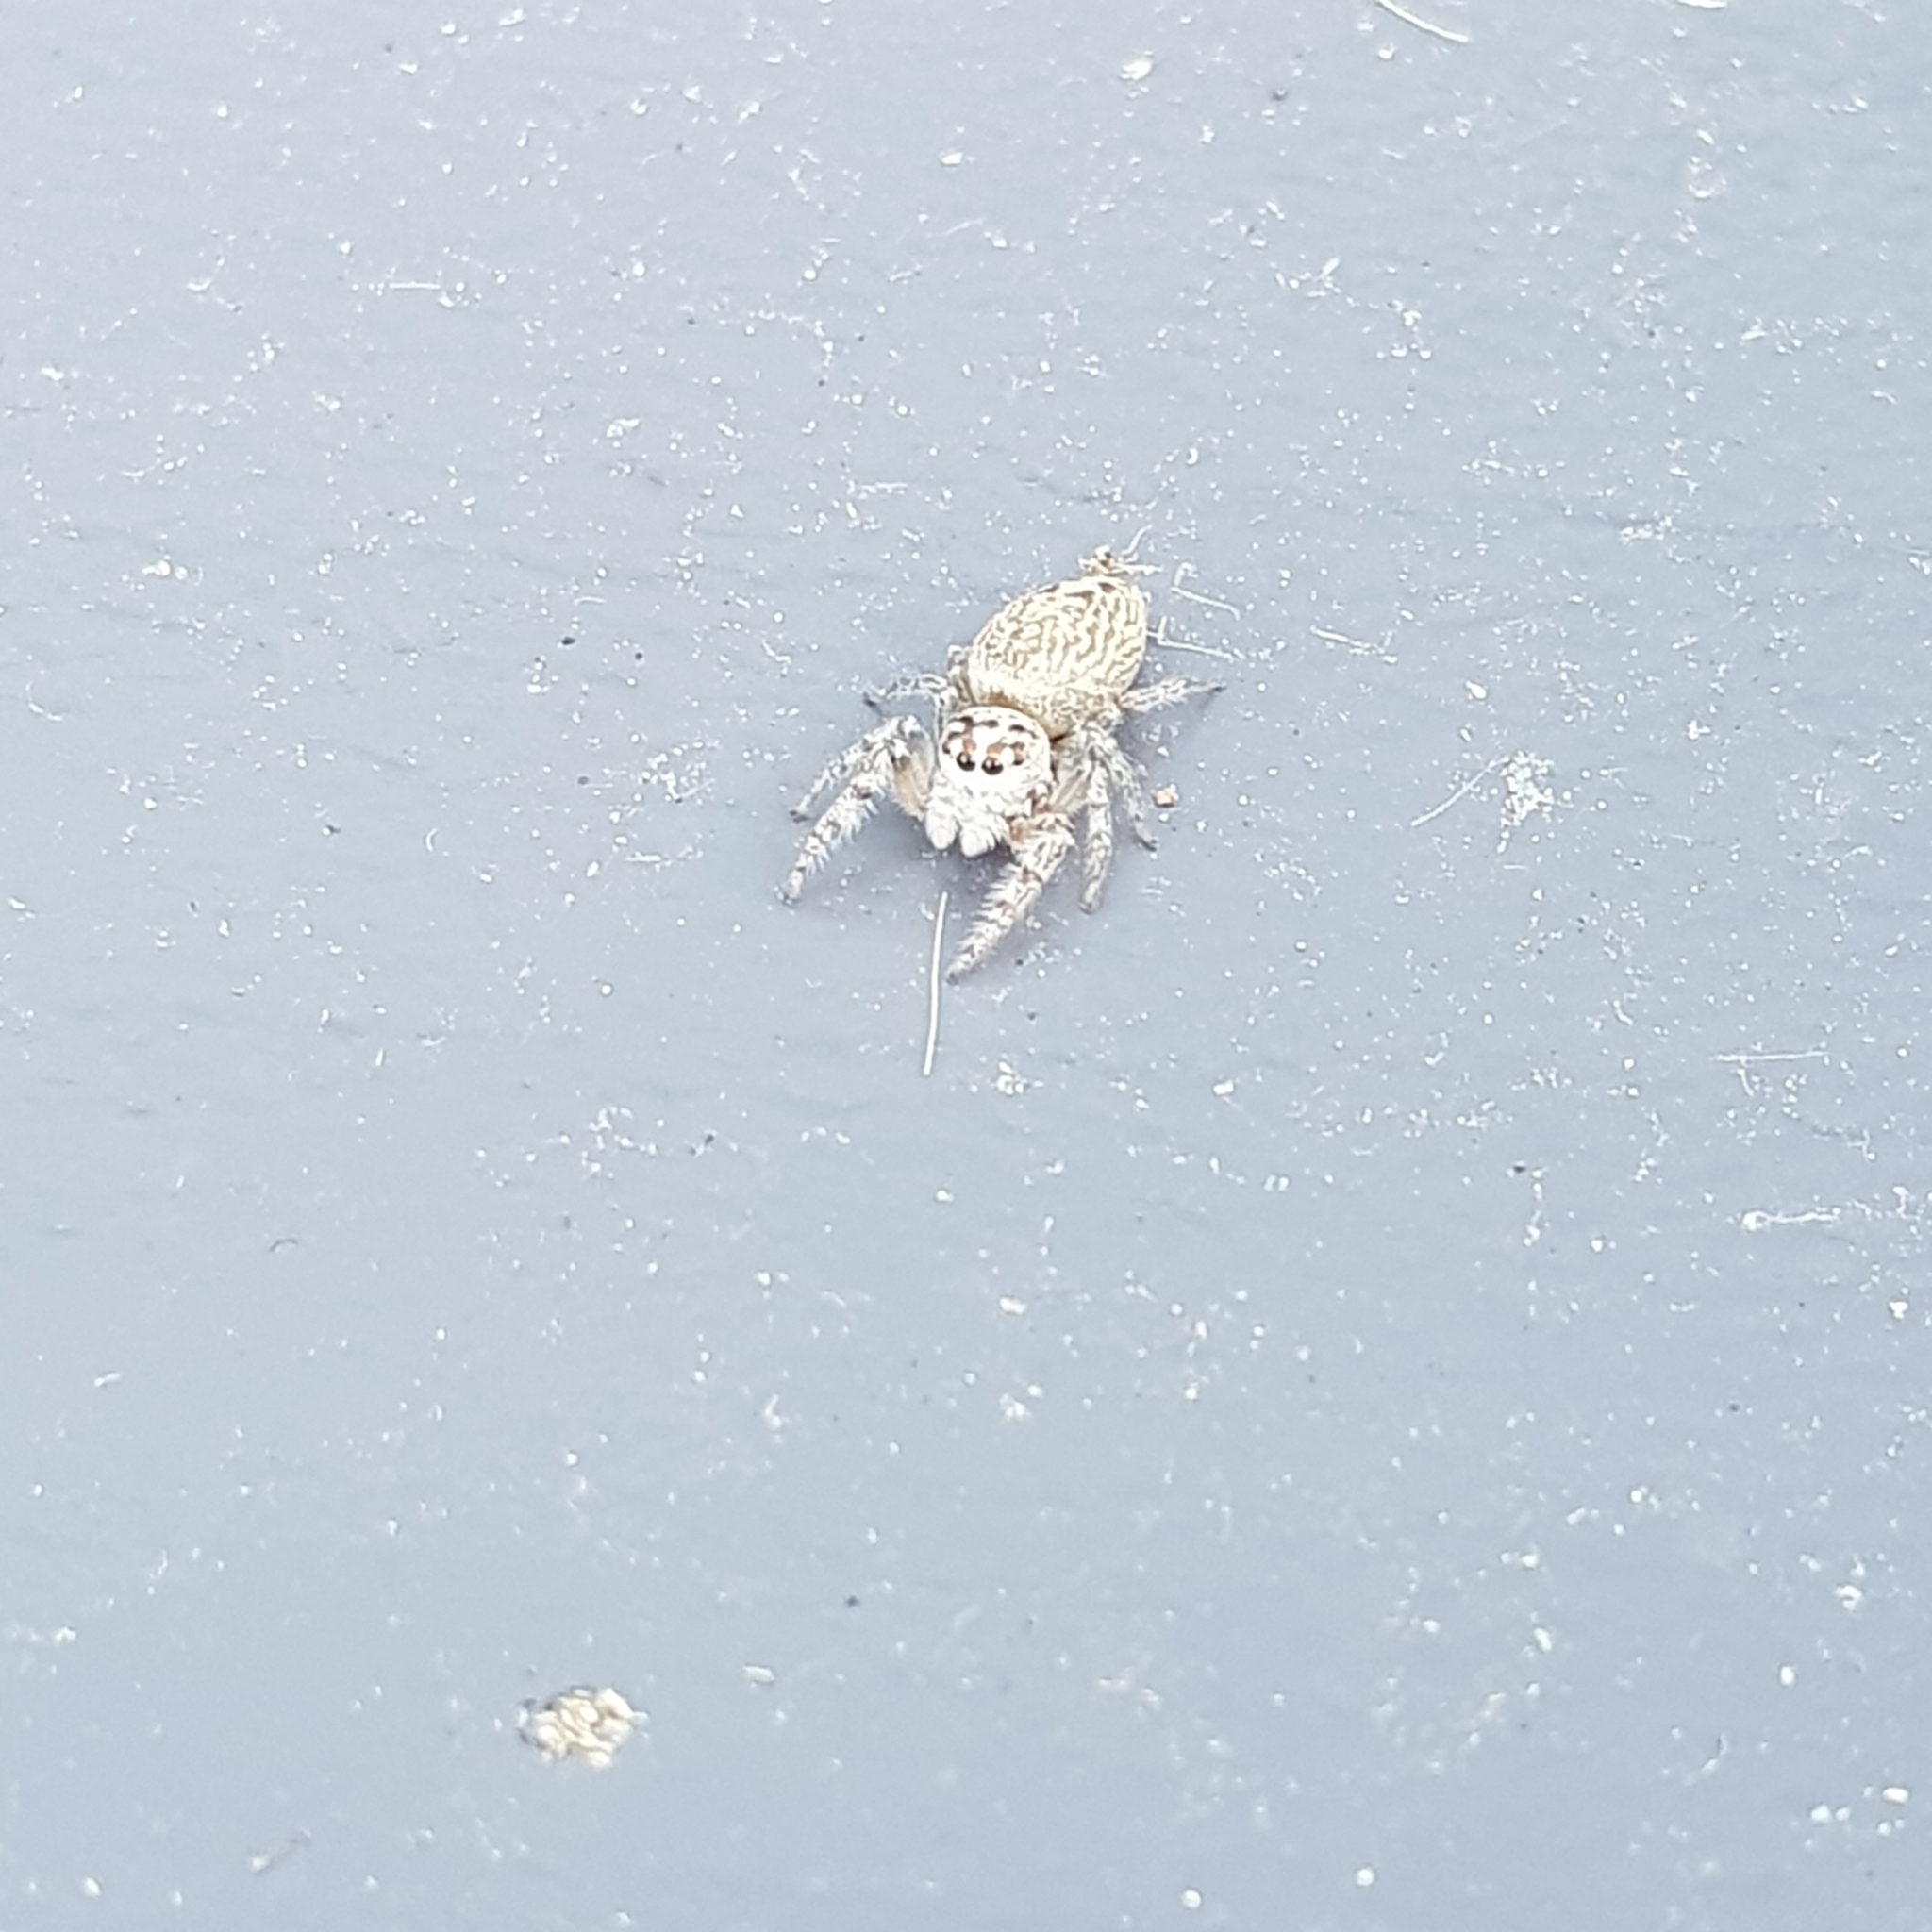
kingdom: Animalia
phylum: Arthropoda
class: Arachnida
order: Araneae
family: Salticidae
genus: Opisthoncus
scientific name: Opisthoncus polyphemus
